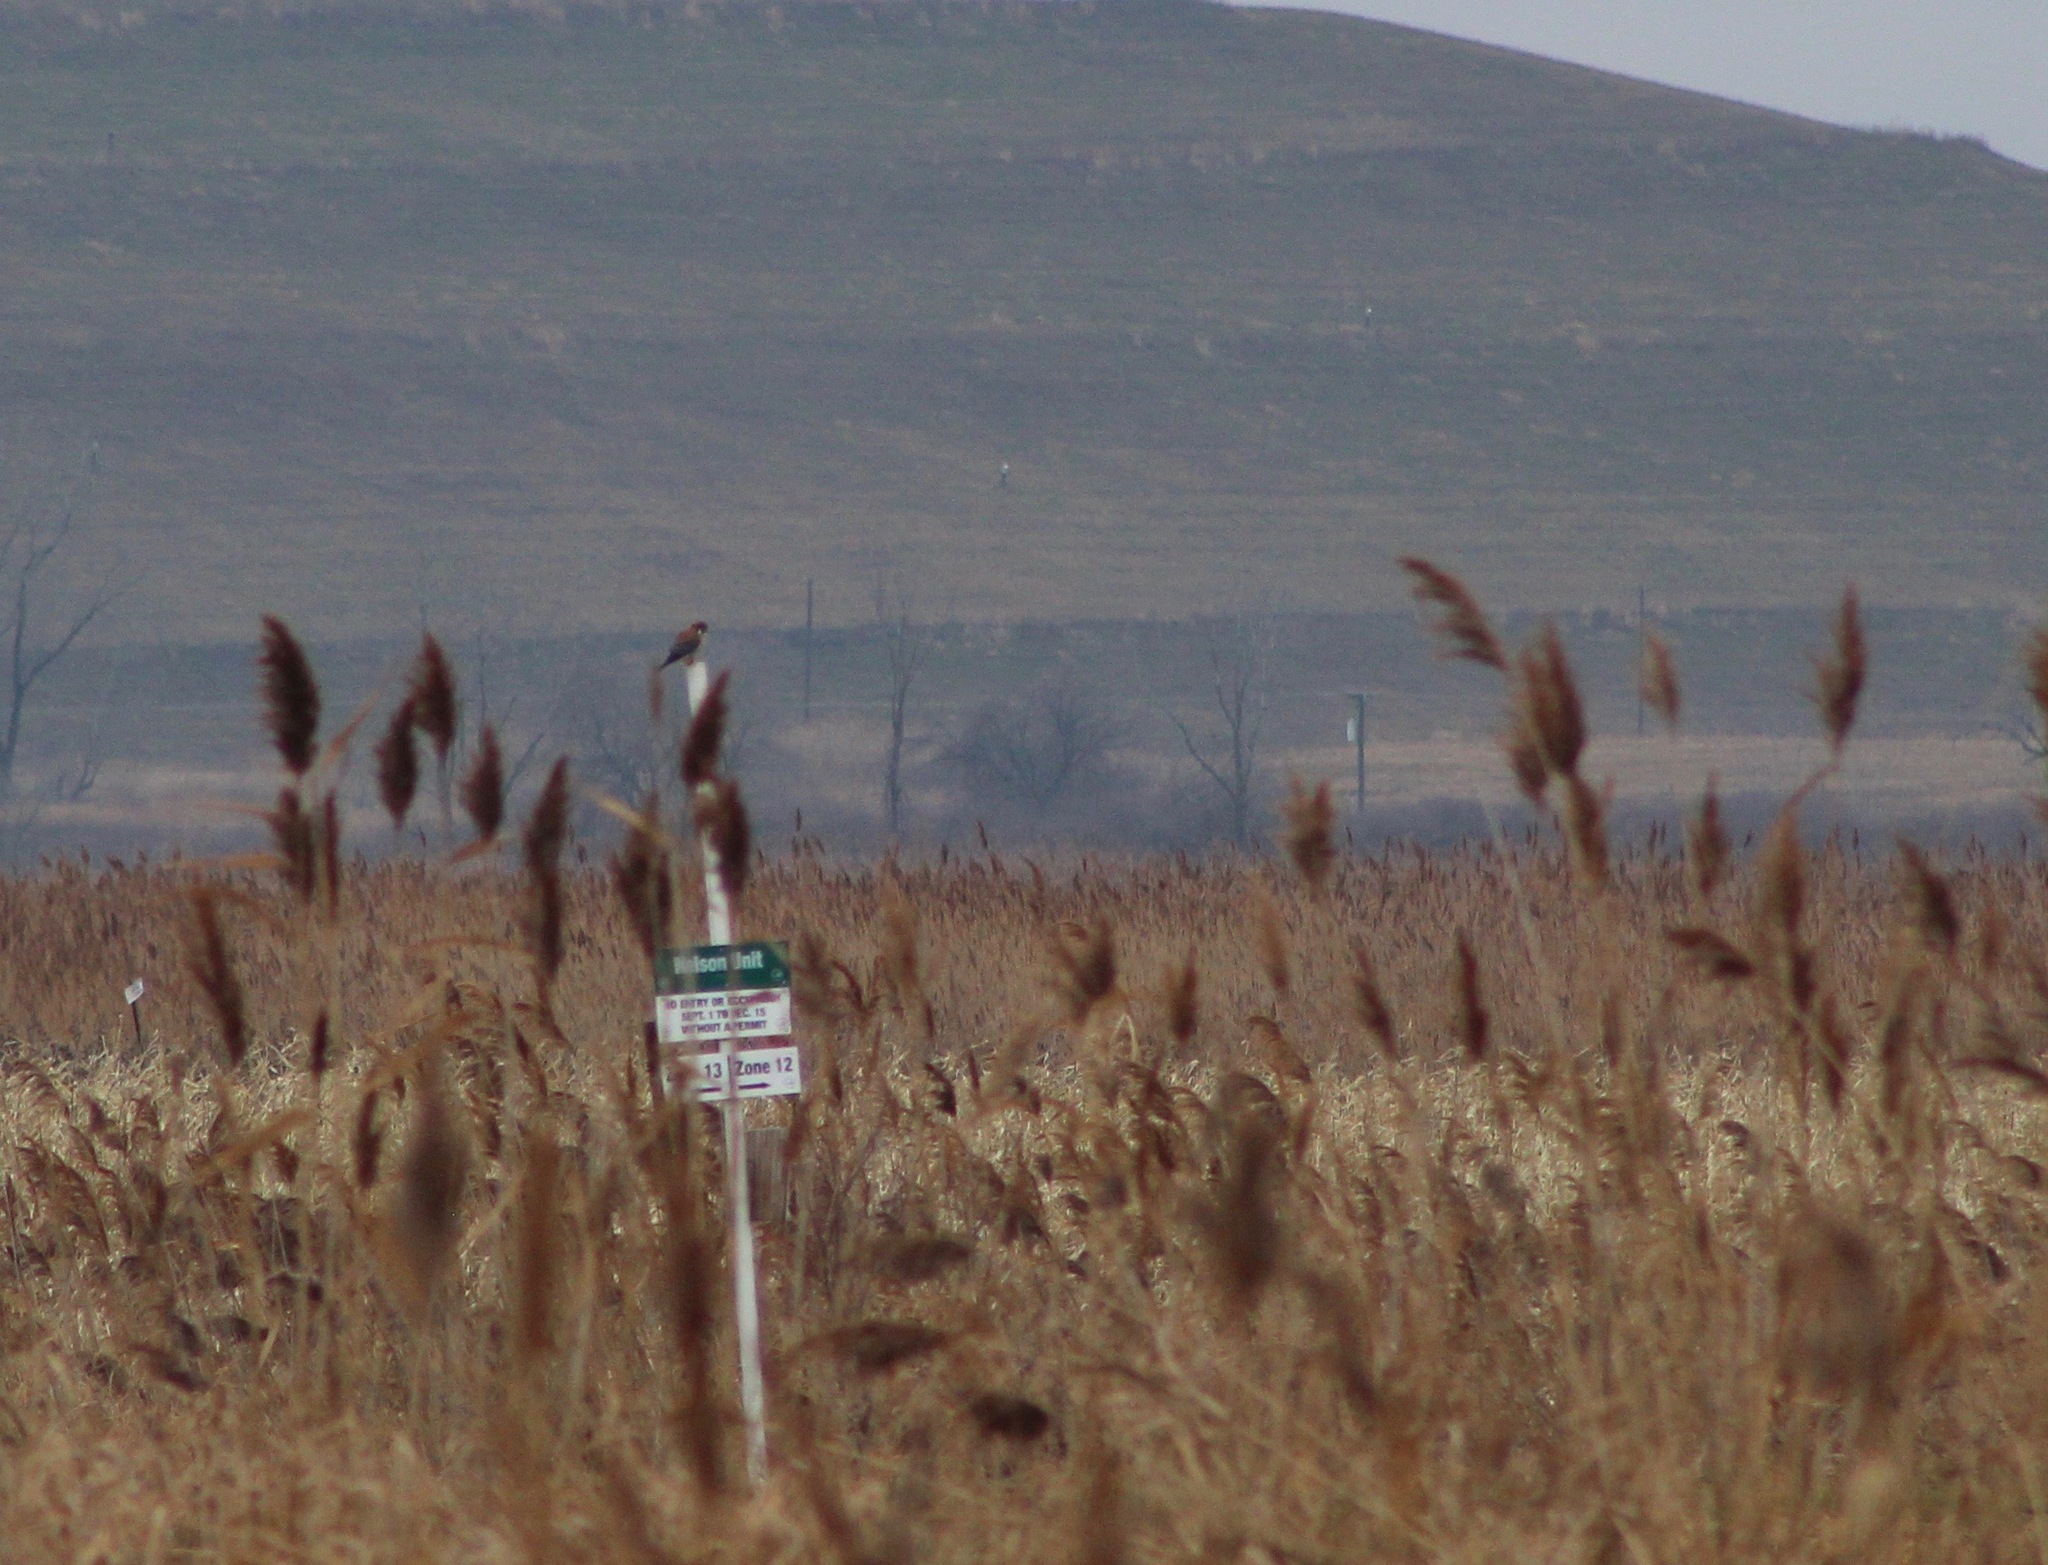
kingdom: Animalia
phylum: Chordata
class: Aves
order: Falconiformes
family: Falconidae
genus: Falco
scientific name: Falco sparverius
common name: American kestrel
